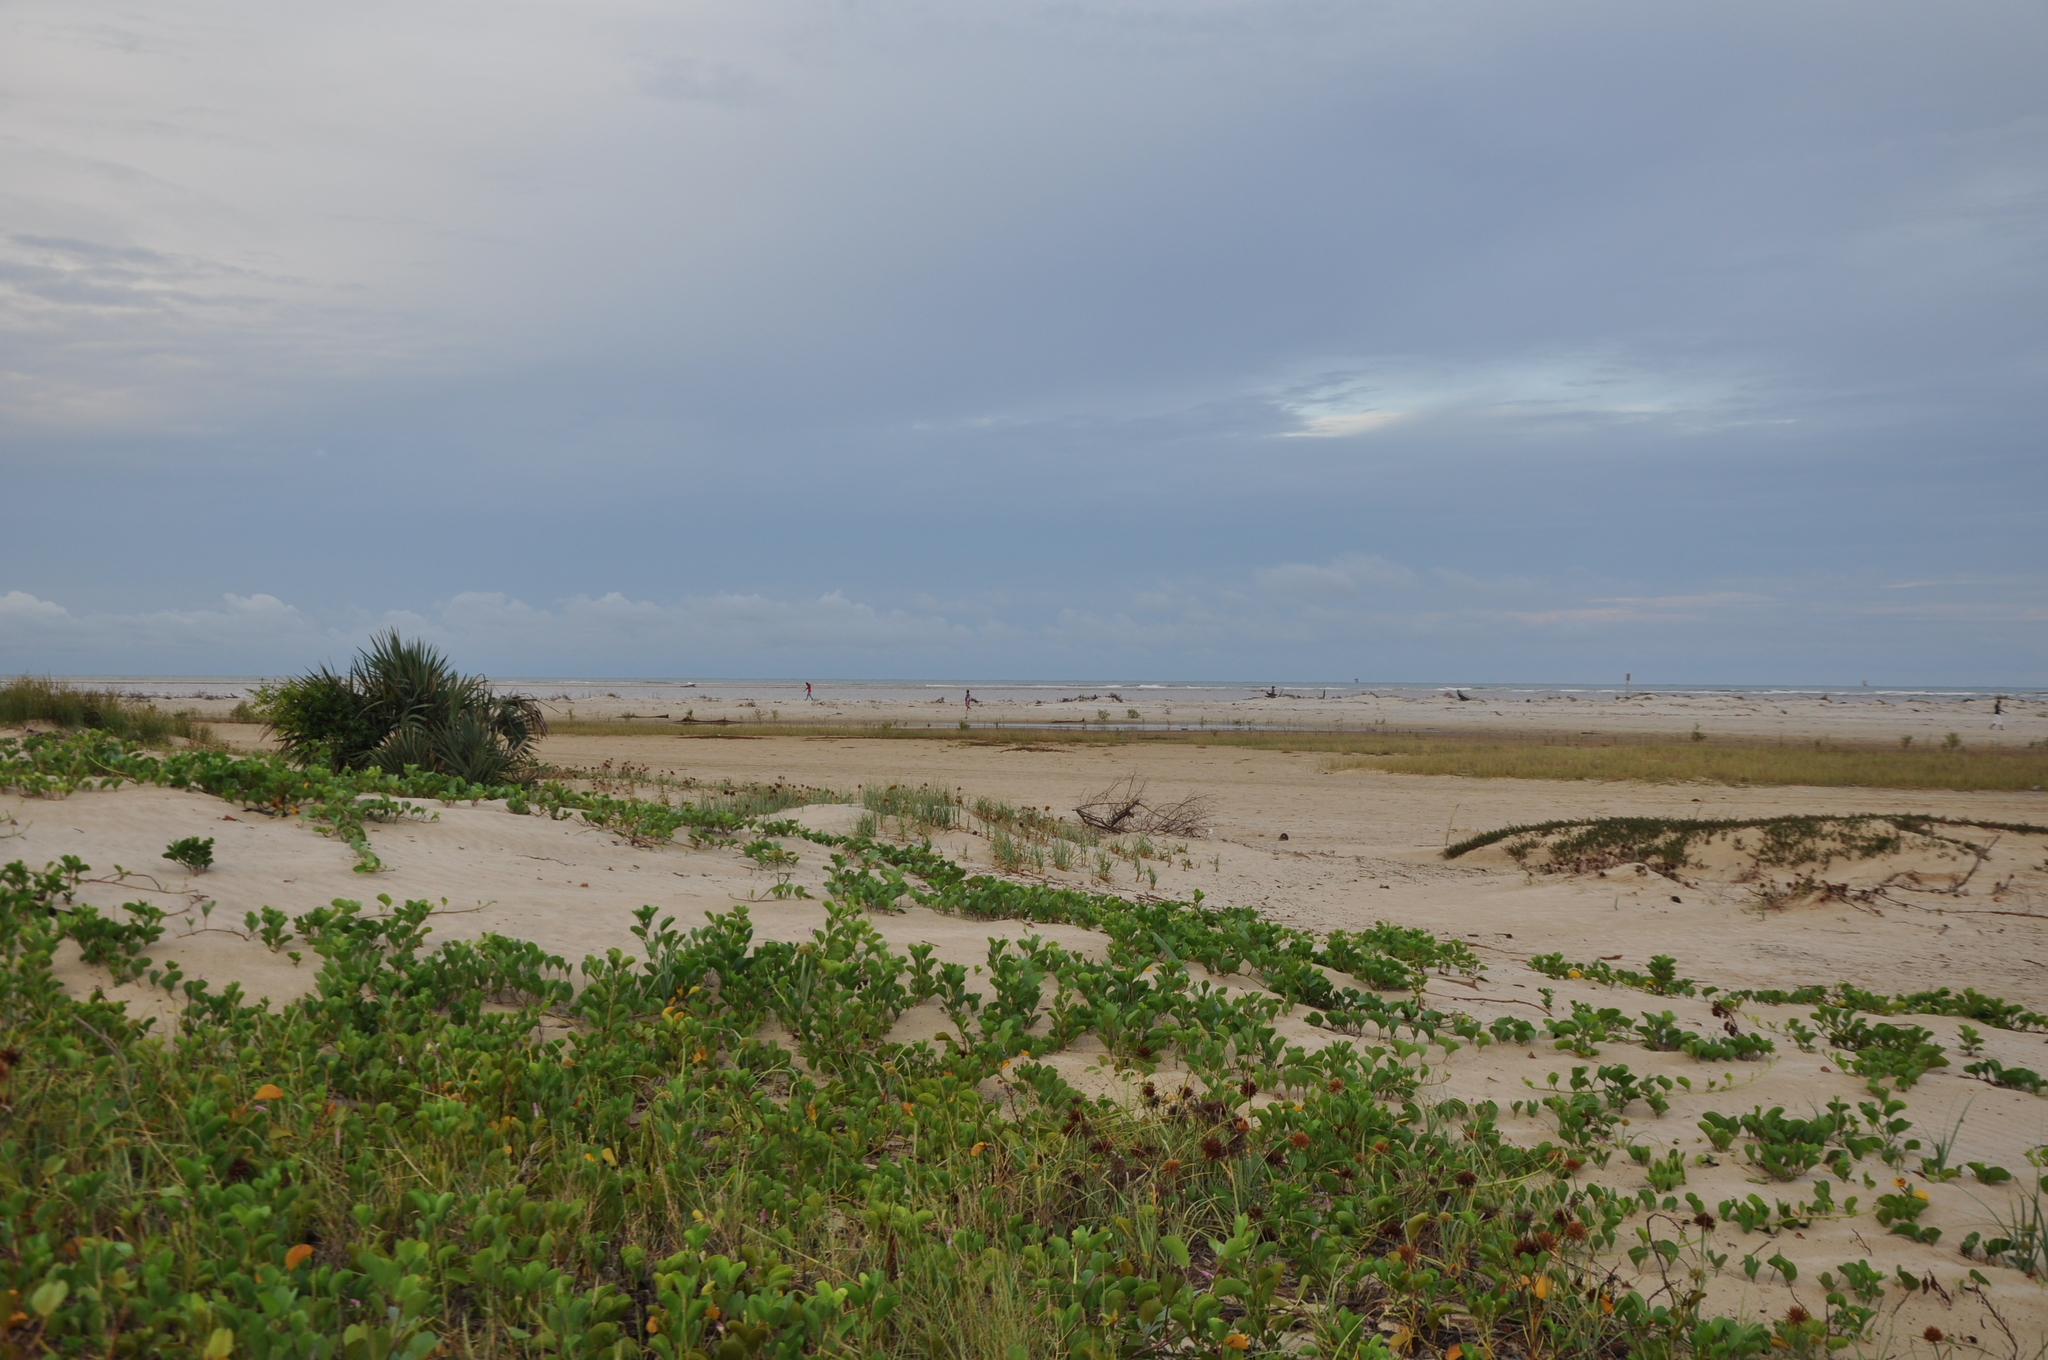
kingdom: Plantae
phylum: Tracheophyta
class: Magnoliopsida
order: Solanales
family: Convolvulaceae
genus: Ipomoea
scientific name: Ipomoea pes-caprae
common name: Beach morning glory
